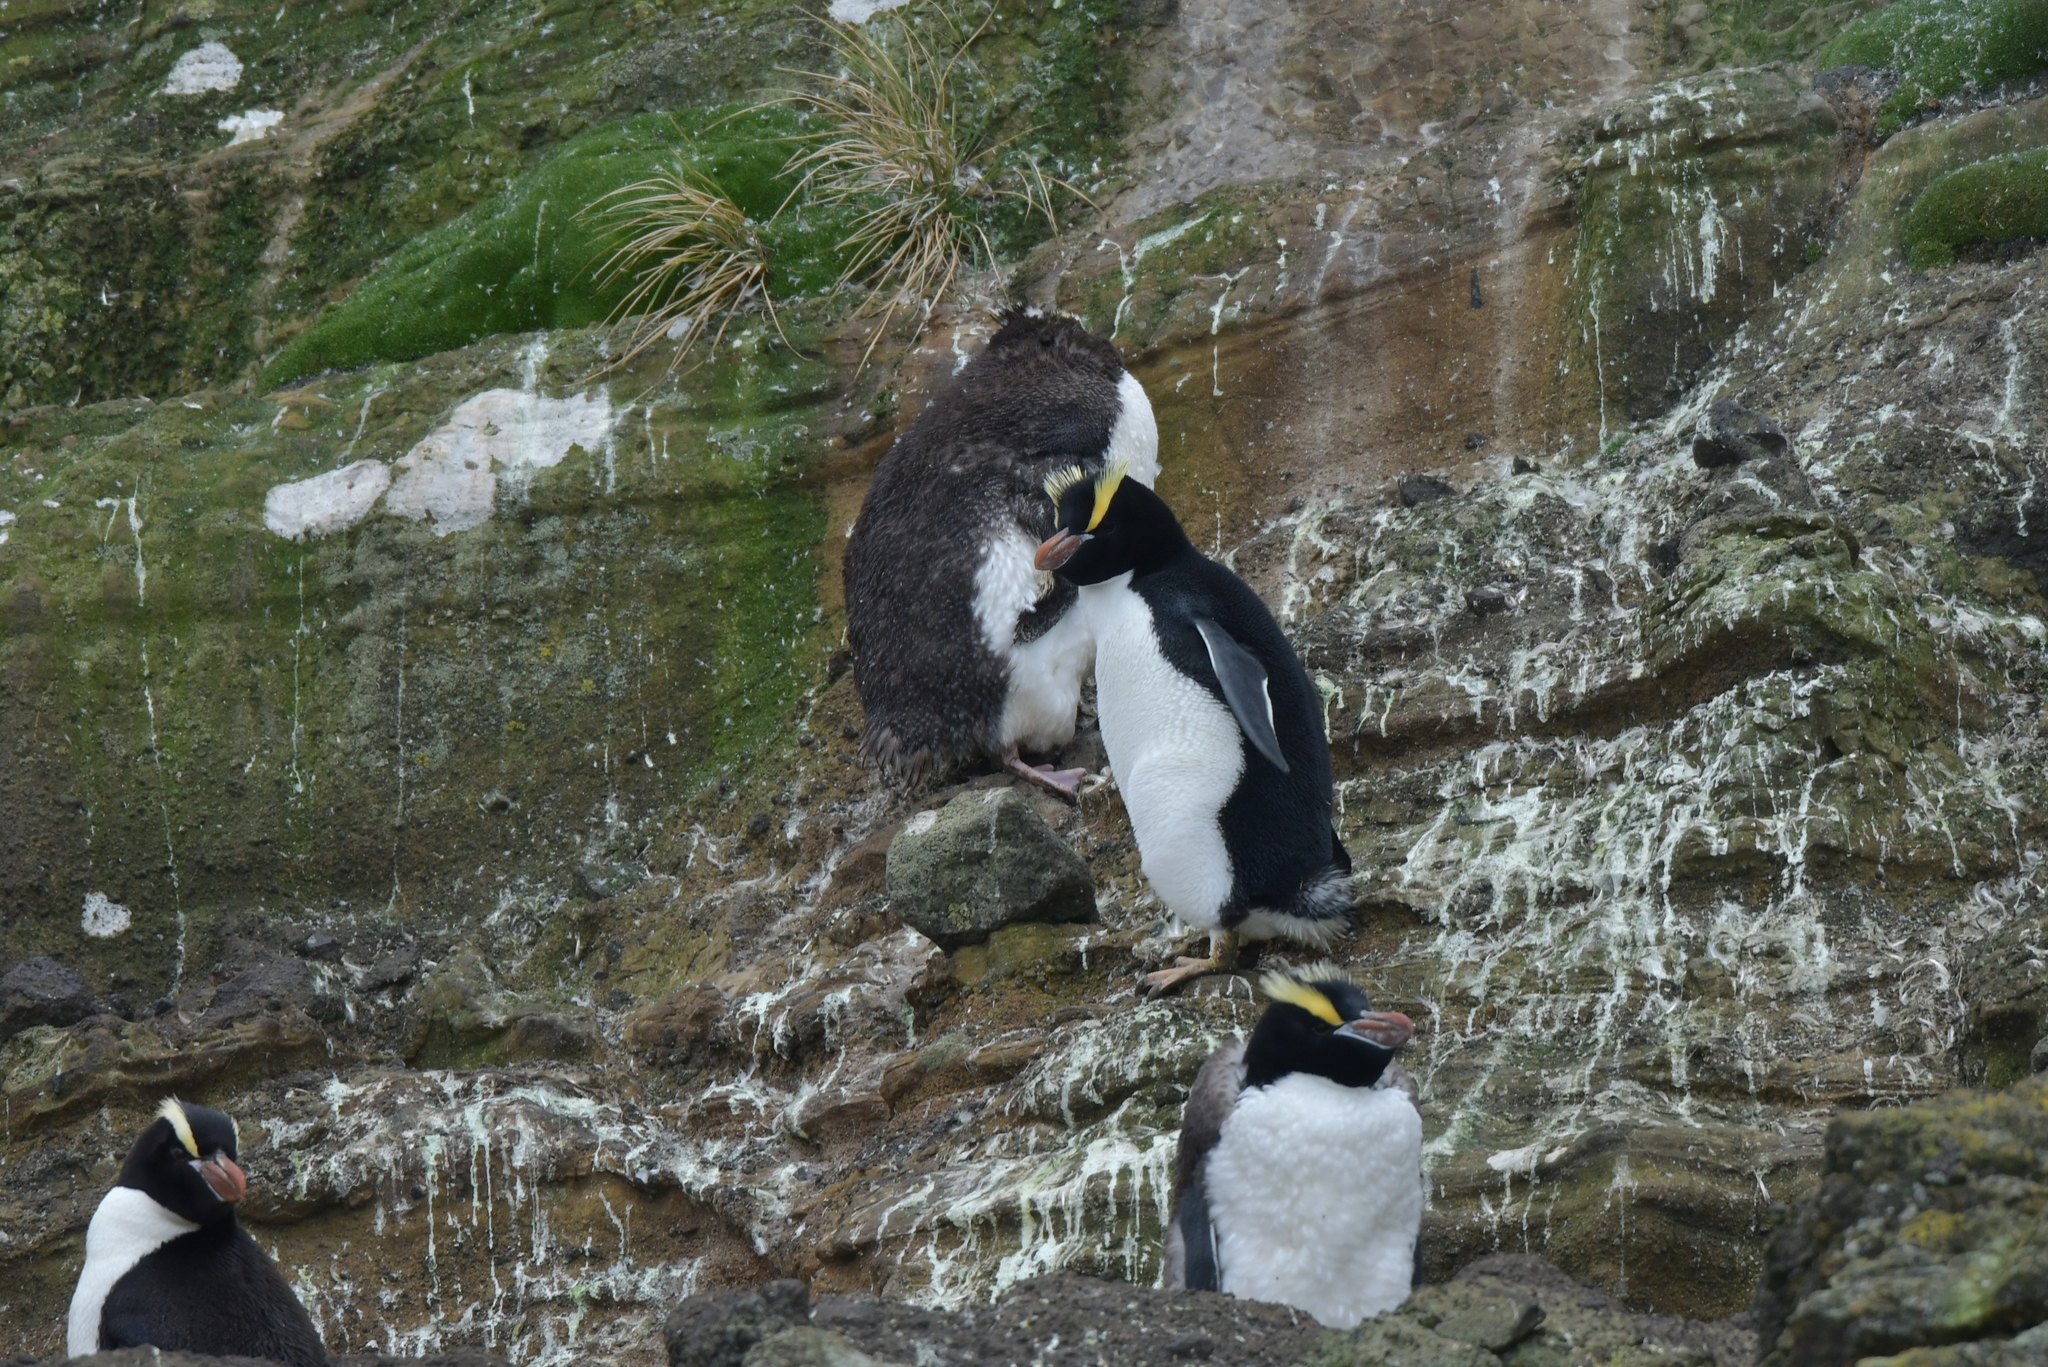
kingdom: Animalia
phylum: Chordata
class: Aves
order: Sphenisciformes
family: Spheniscidae
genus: Eudyptes
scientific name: Eudyptes sclateri
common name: Erect-crested penguin
